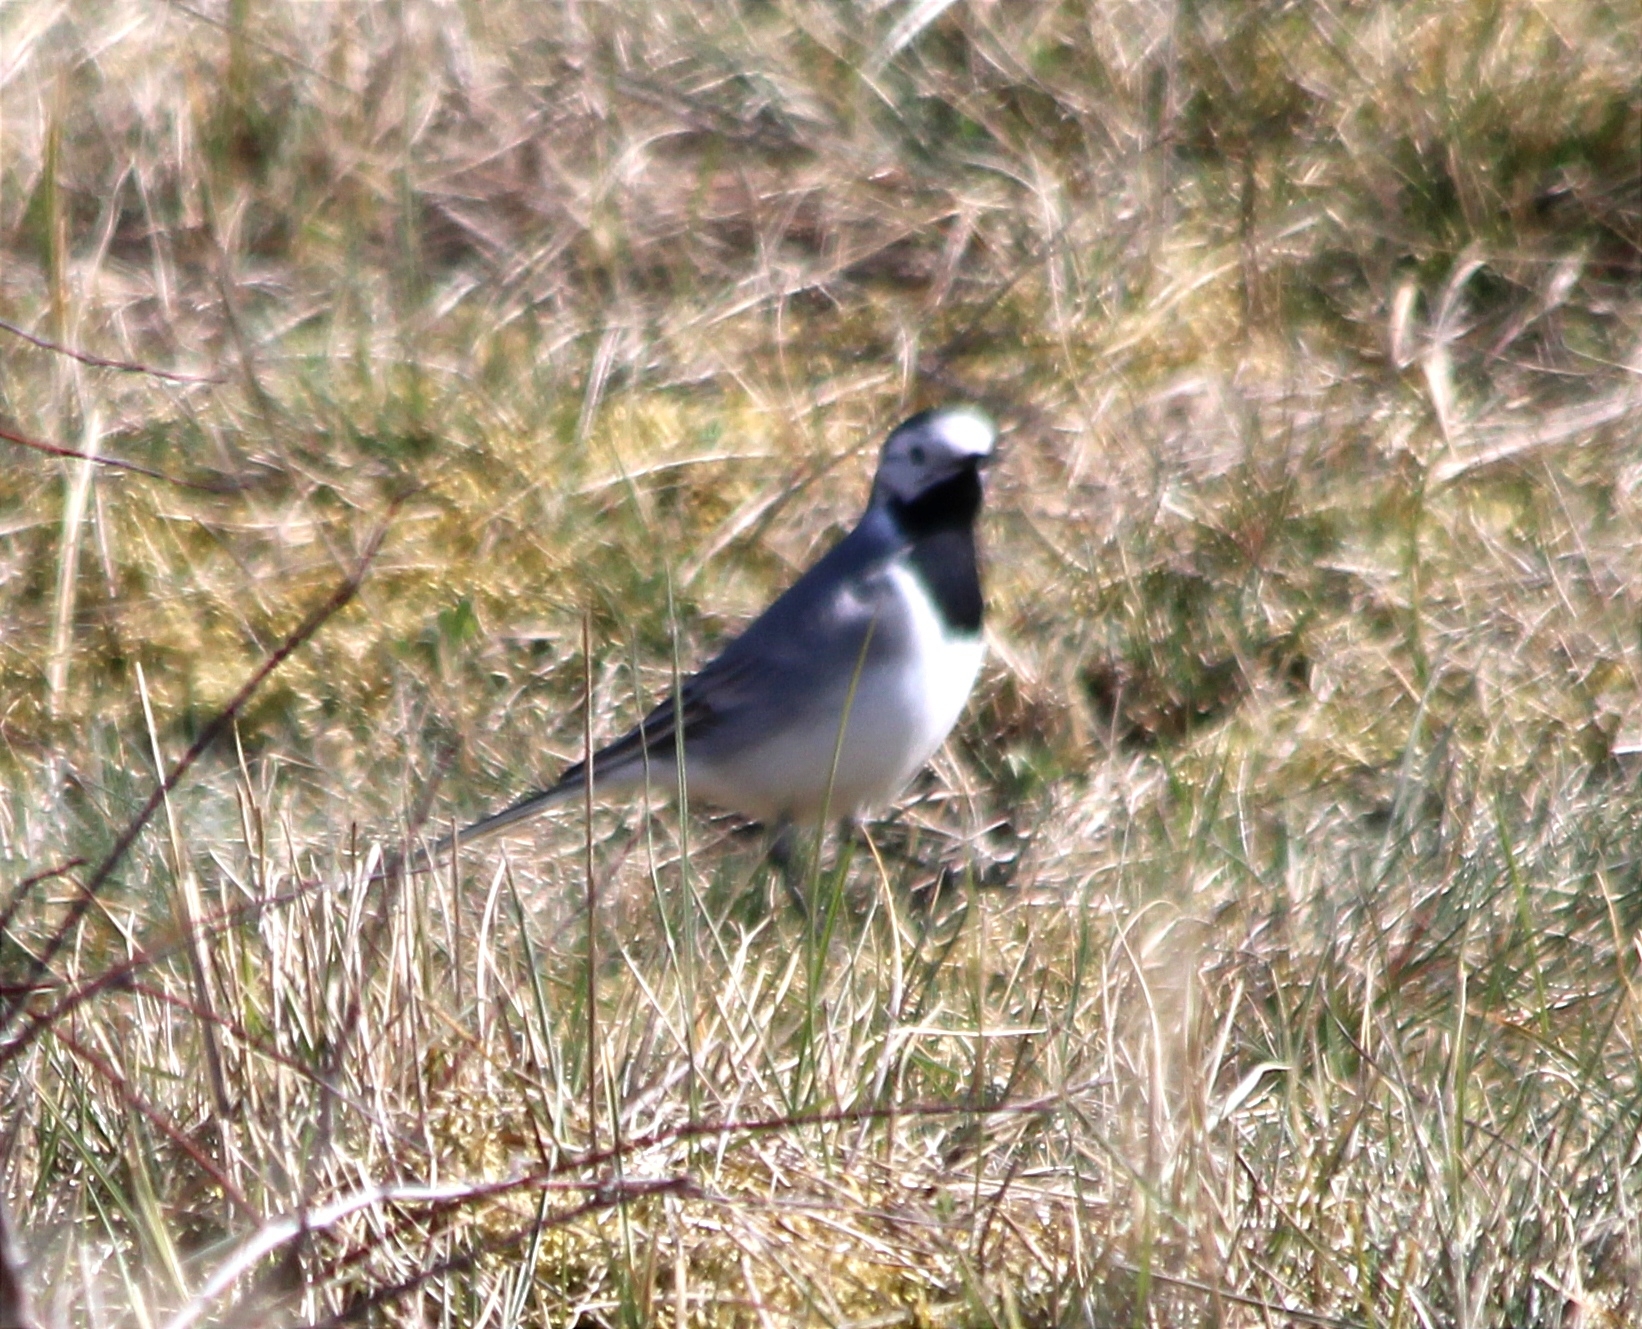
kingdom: Animalia
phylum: Chordata
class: Aves
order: Passeriformes
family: Motacillidae
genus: Motacilla
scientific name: Motacilla alba
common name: White wagtail
